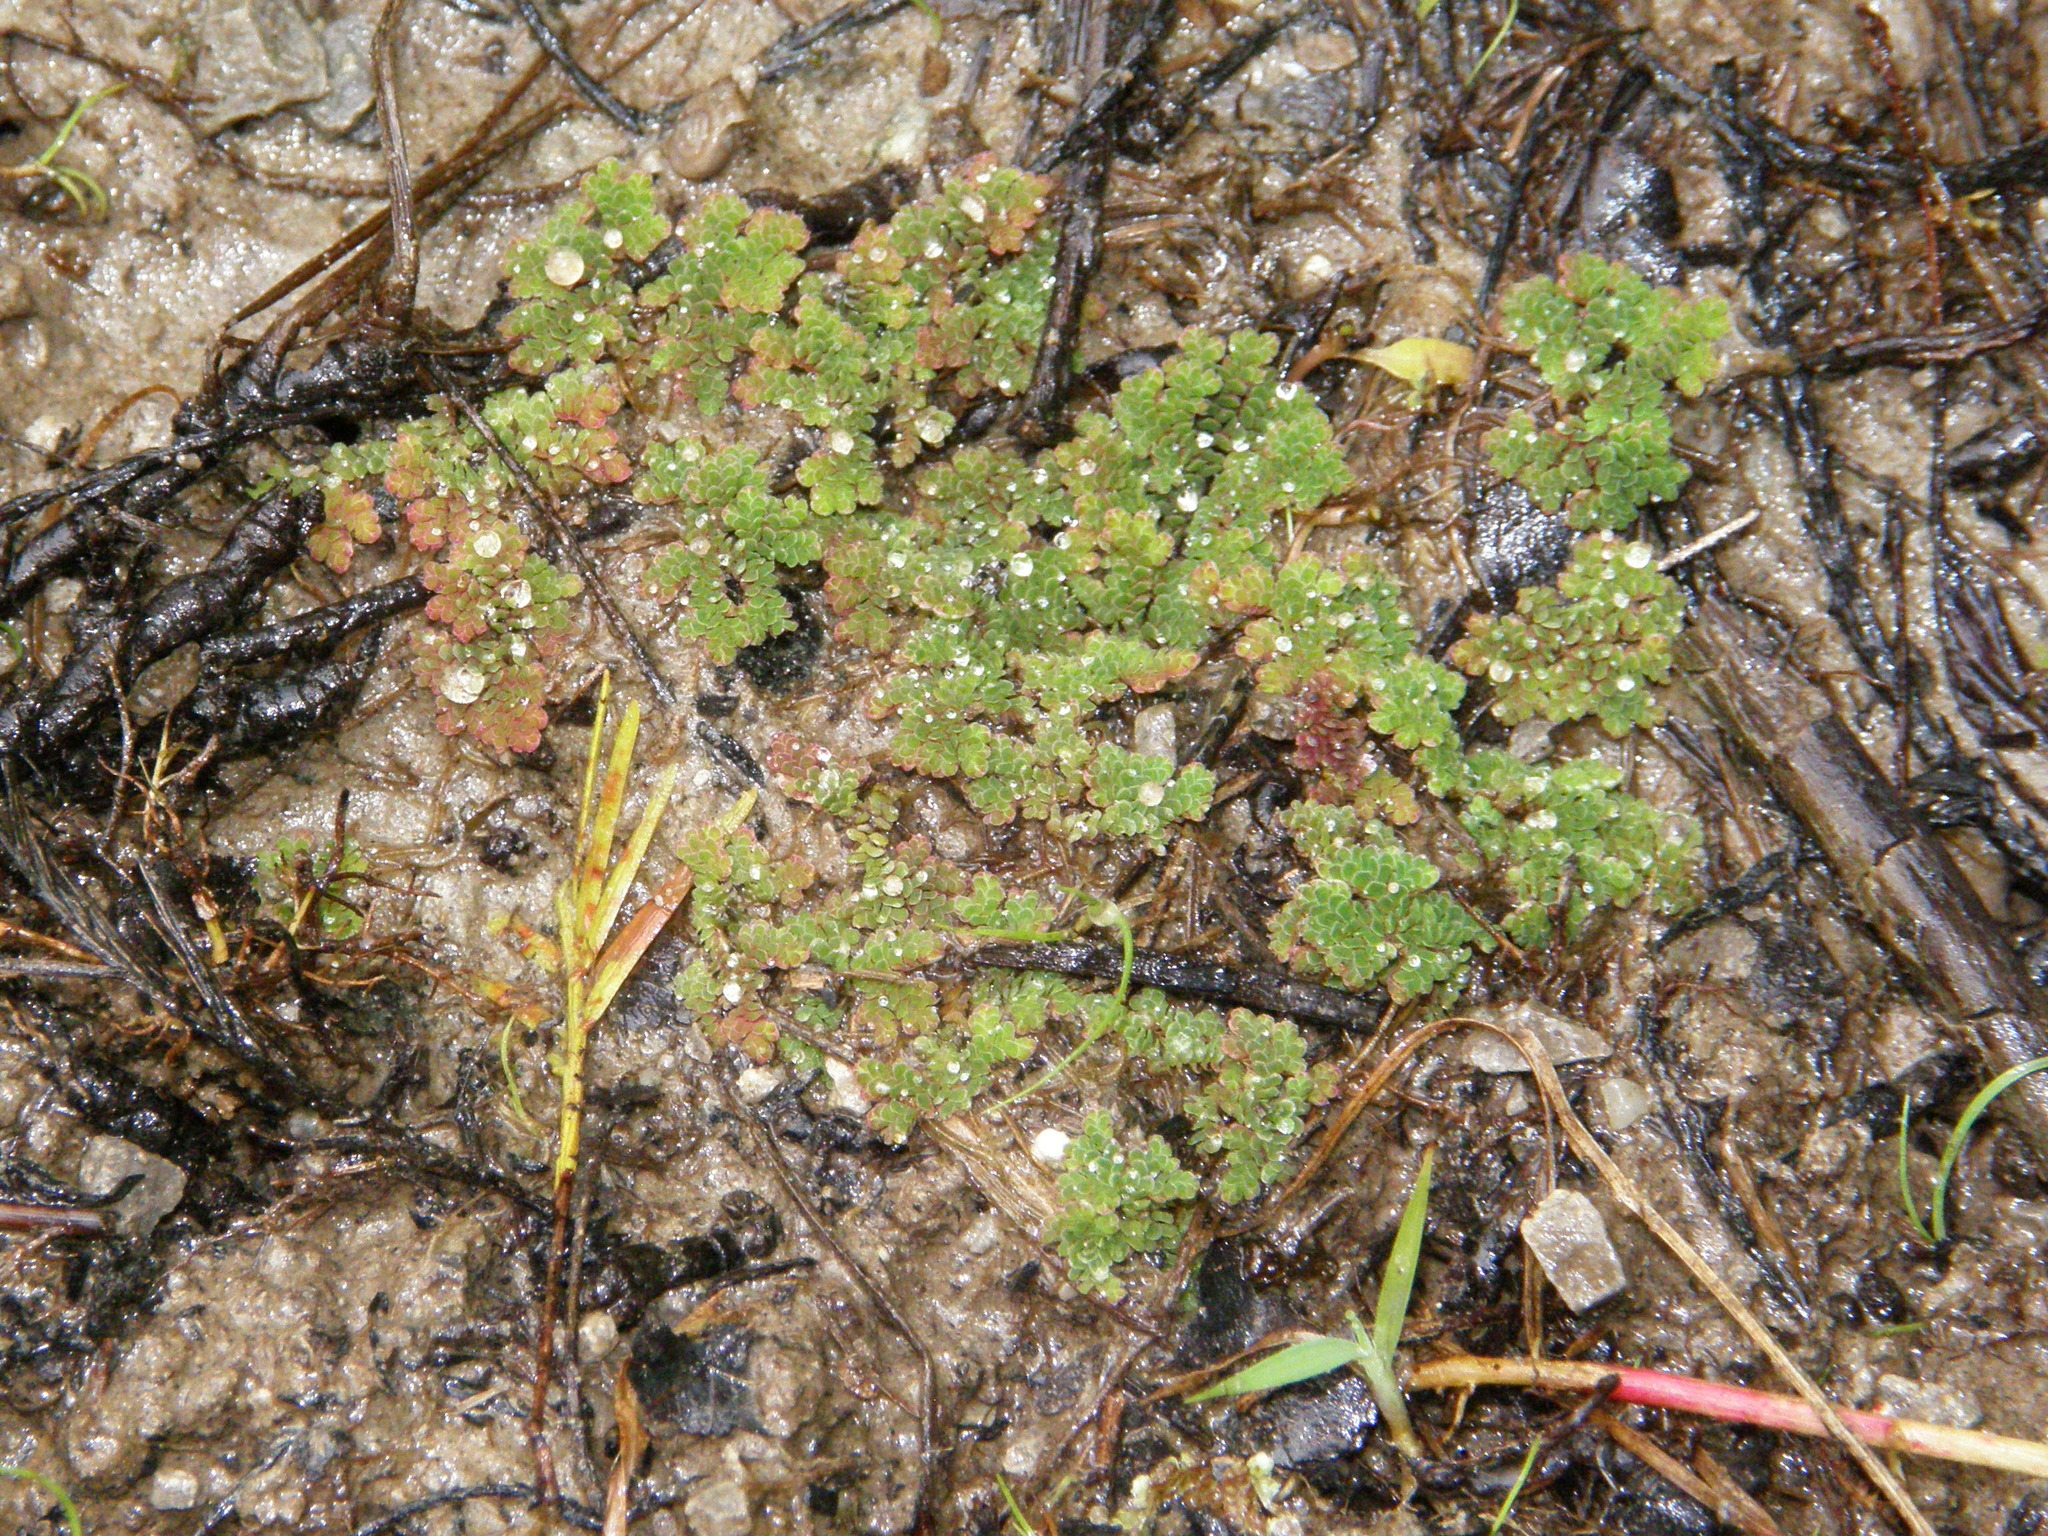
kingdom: Plantae
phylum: Tracheophyta
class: Polypodiopsida
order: Salviniales
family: Salviniaceae
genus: Azolla
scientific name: Azolla caroliniana
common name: Carolina mosquitofern
